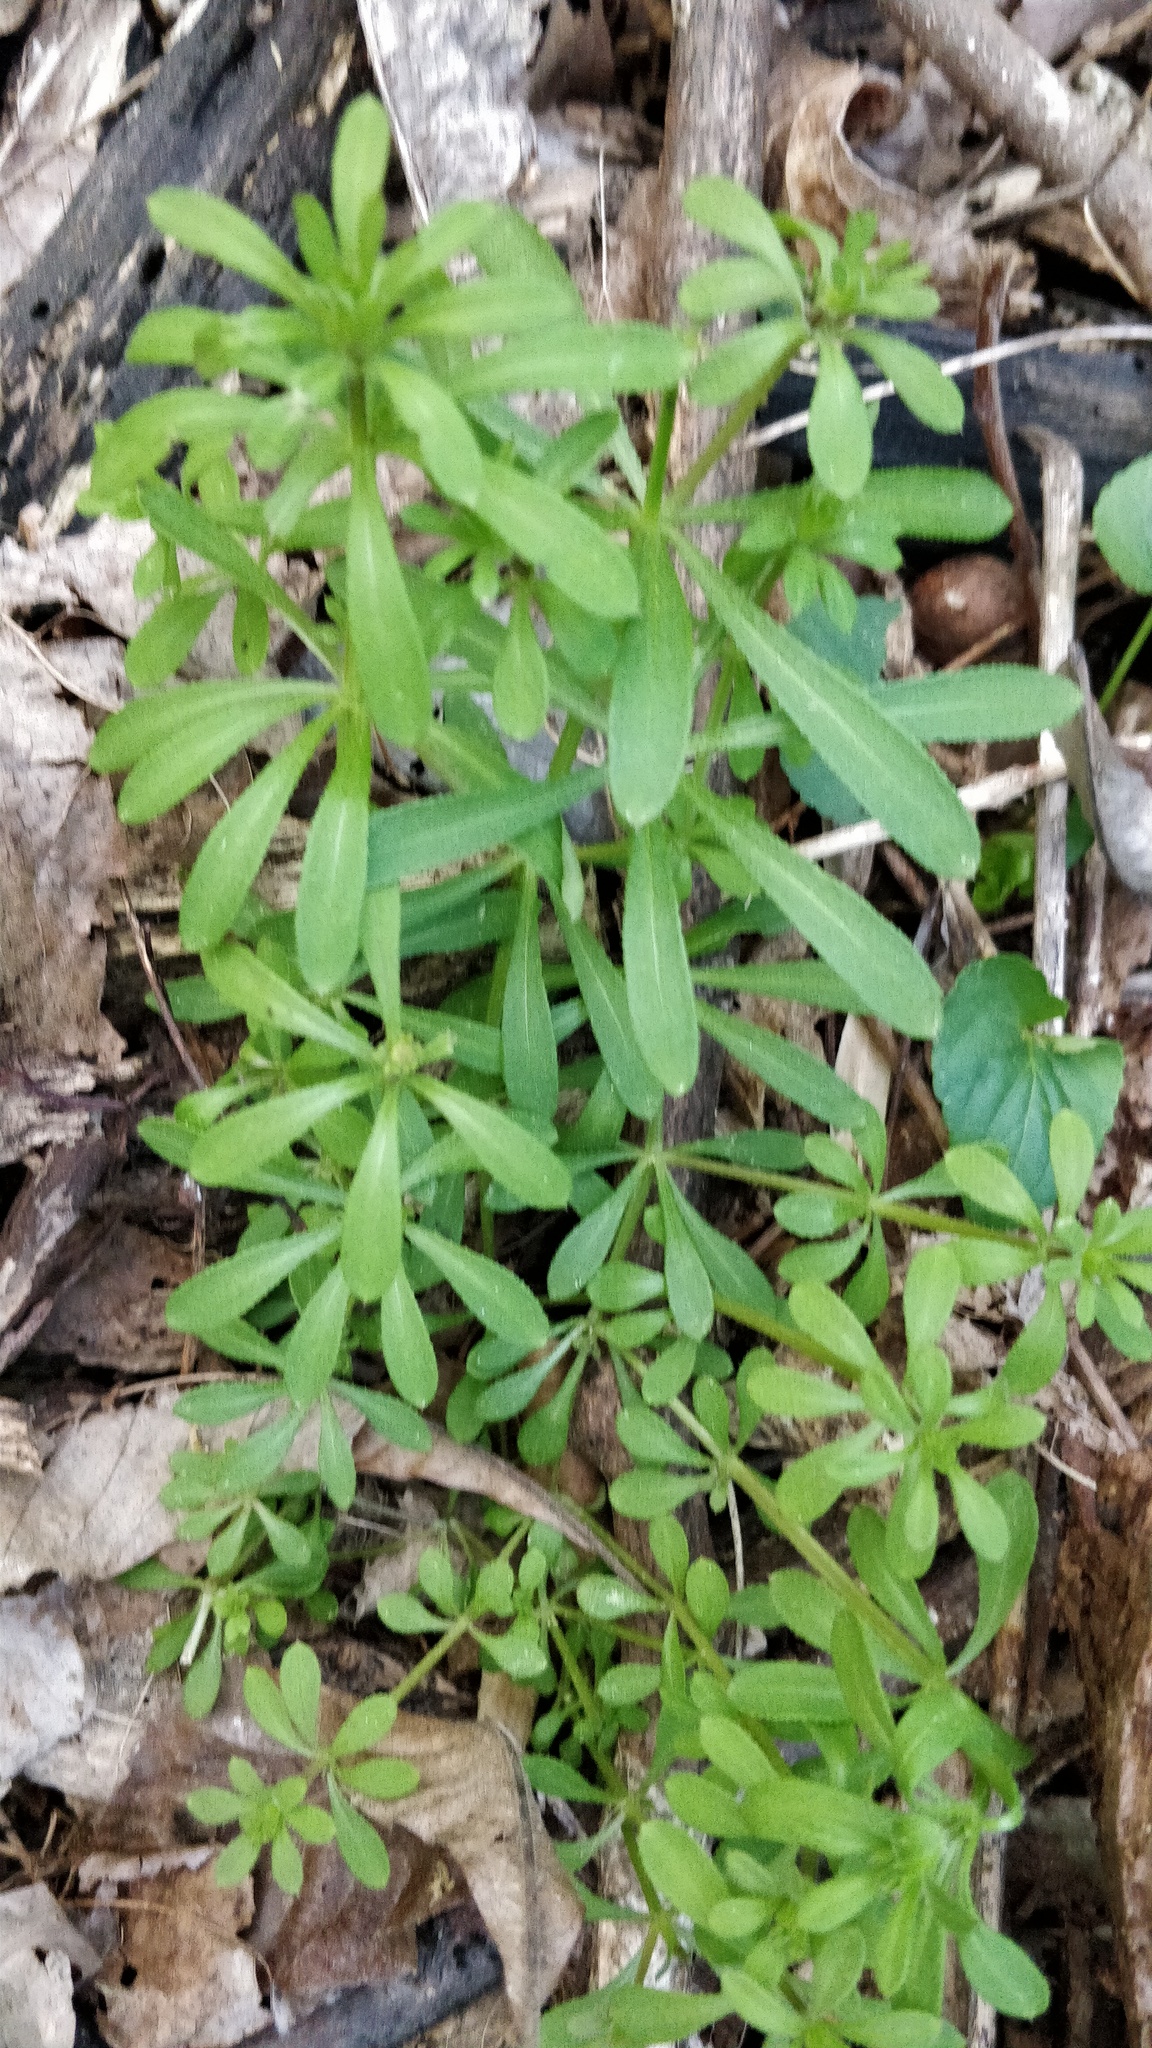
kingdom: Plantae
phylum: Tracheophyta
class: Magnoliopsida
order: Gentianales
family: Rubiaceae
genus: Galium
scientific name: Galium aparine
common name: Cleavers
